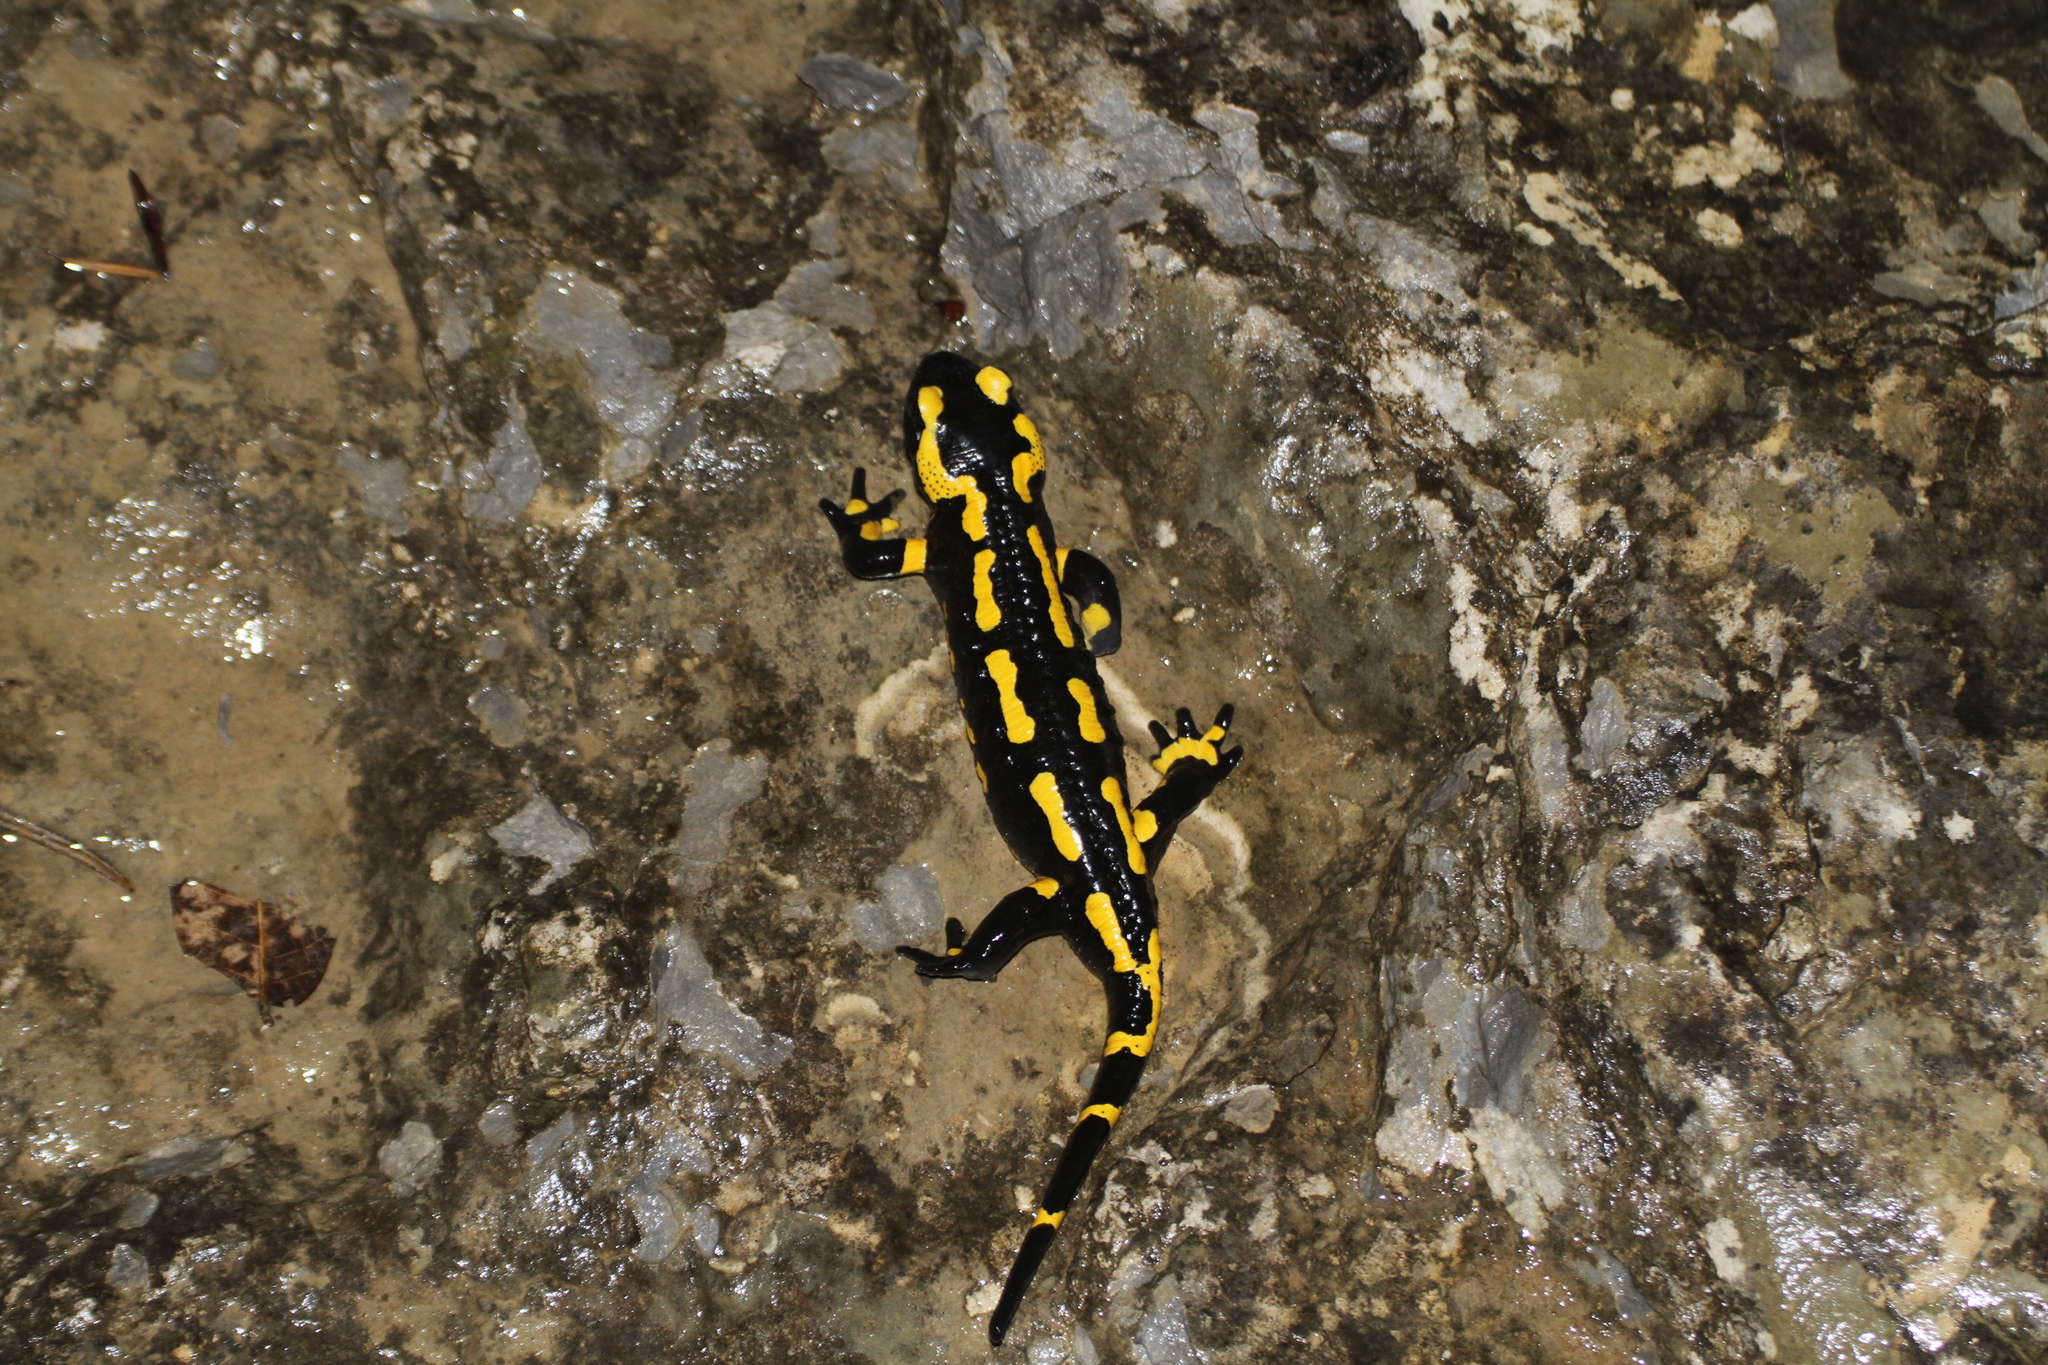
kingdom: Animalia
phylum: Chordata
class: Amphibia
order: Caudata
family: Salamandridae
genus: Salamandra
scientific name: Salamandra salamandra
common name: Fire salamander
